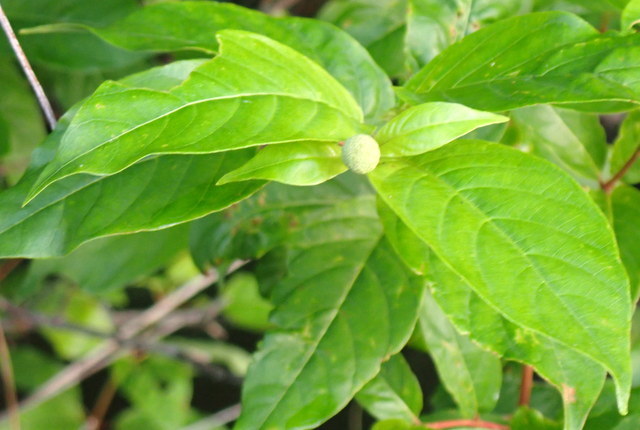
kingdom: Plantae
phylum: Tracheophyta
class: Magnoliopsida
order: Gentianales
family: Rubiaceae
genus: Cephalanthus
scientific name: Cephalanthus occidentalis
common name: Button-willow
